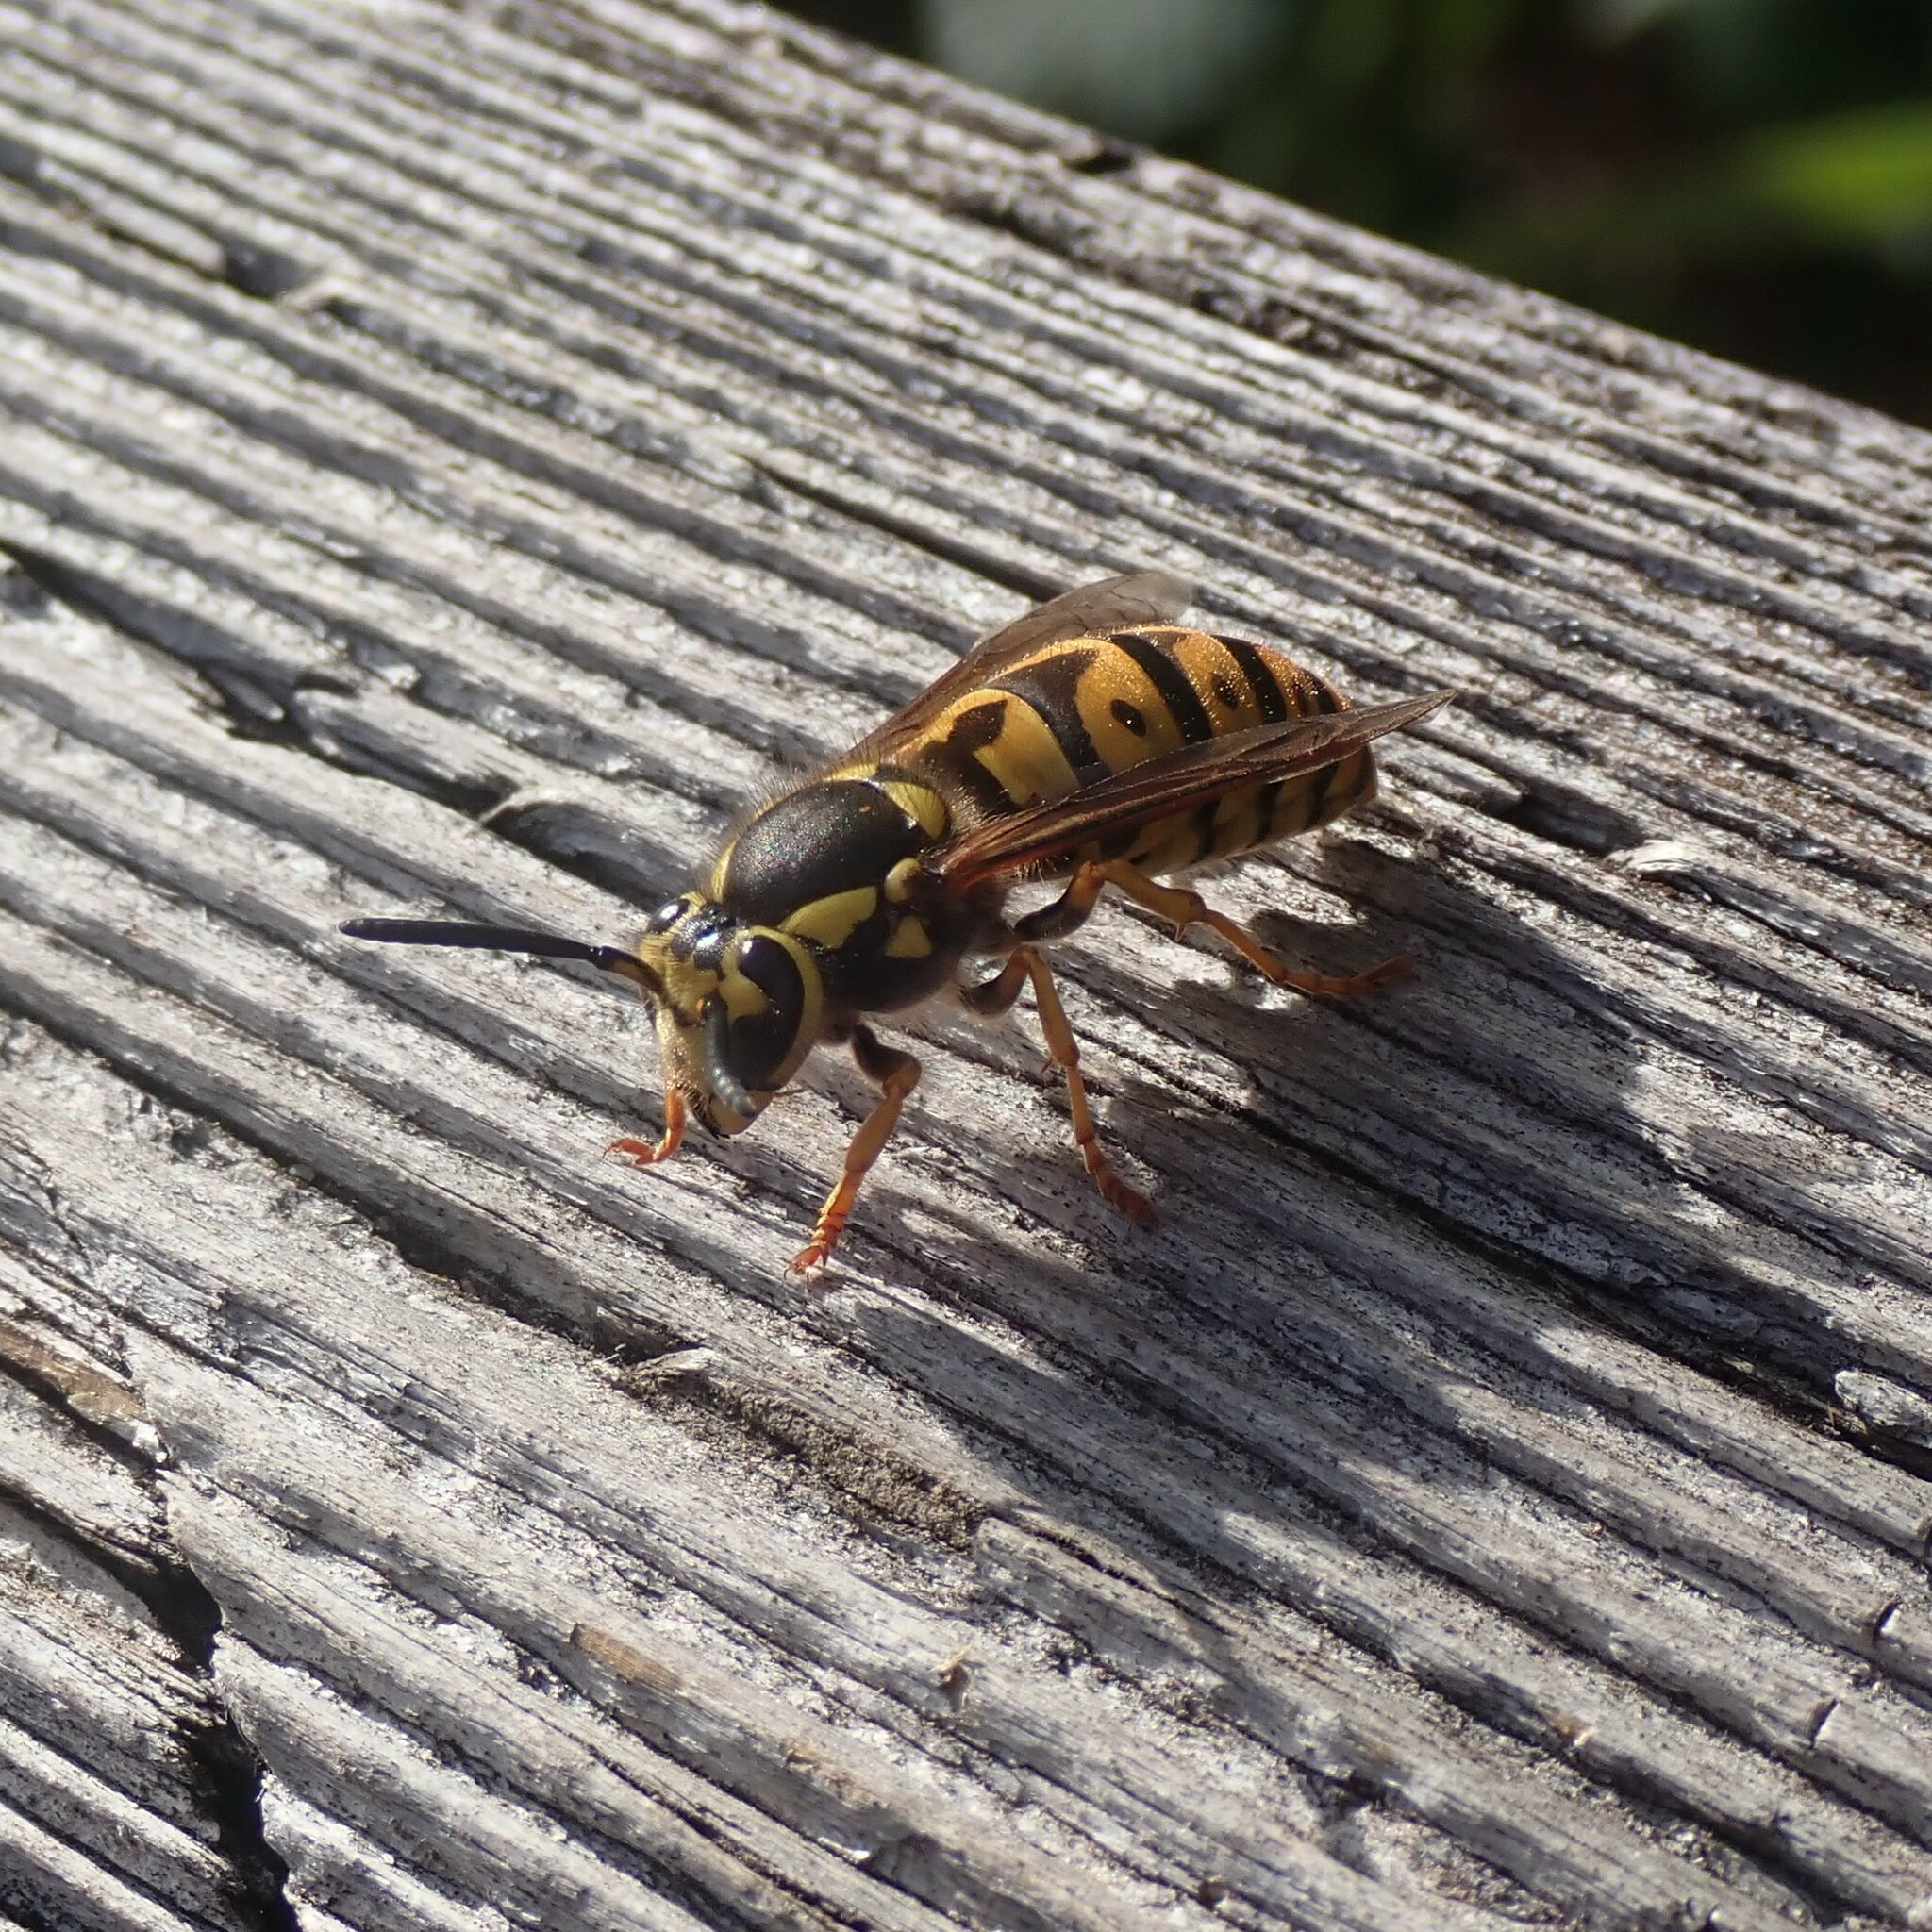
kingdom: Animalia
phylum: Arthropoda
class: Insecta
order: Hymenoptera
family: Vespidae
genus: Vespula
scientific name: Vespula pensylvanica
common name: Western yellowjacket
